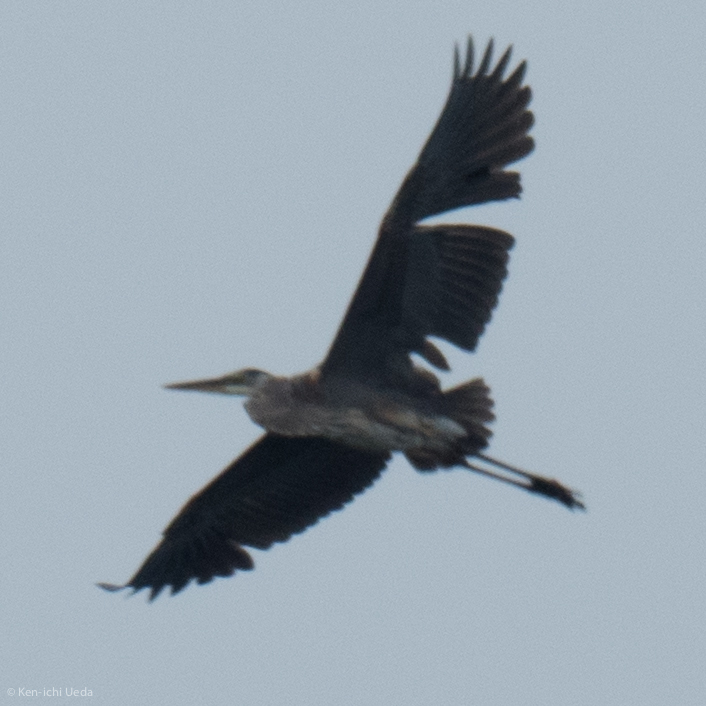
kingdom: Animalia
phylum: Chordata
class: Aves
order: Pelecaniformes
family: Ardeidae
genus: Ardea
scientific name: Ardea herodias
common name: Great blue heron
